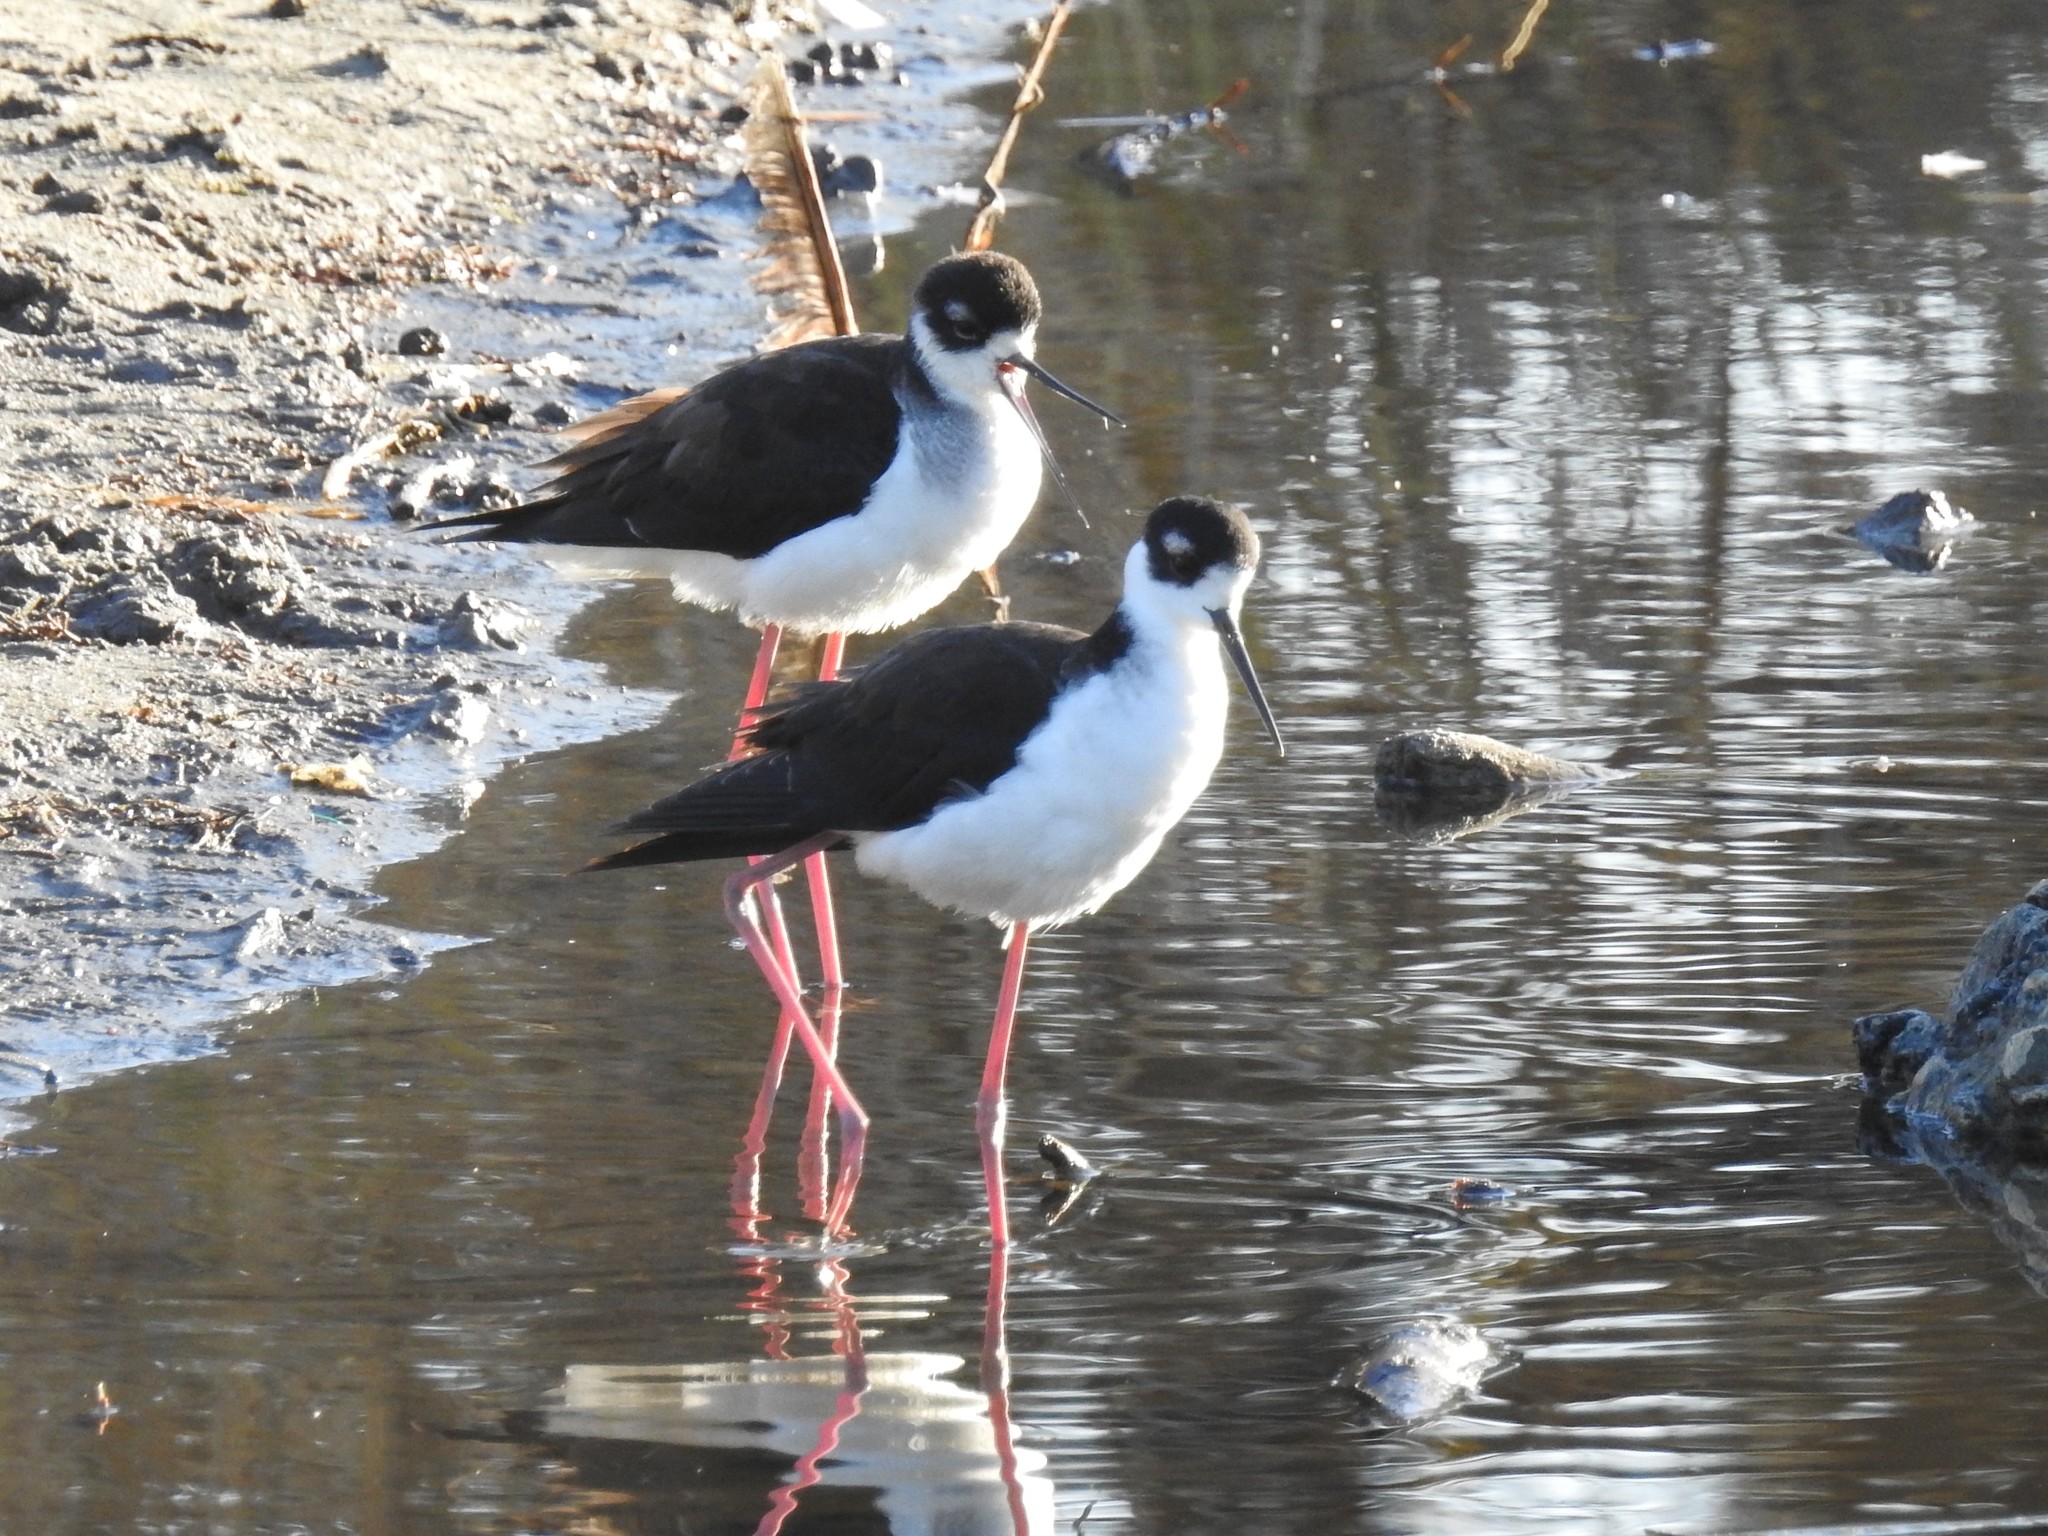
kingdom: Animalia
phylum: Chordata
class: Aves
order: Charadriiformes
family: Recurvirostridae
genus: Himantopus
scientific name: Himantopus mexicanus
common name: Black-necked stilt
